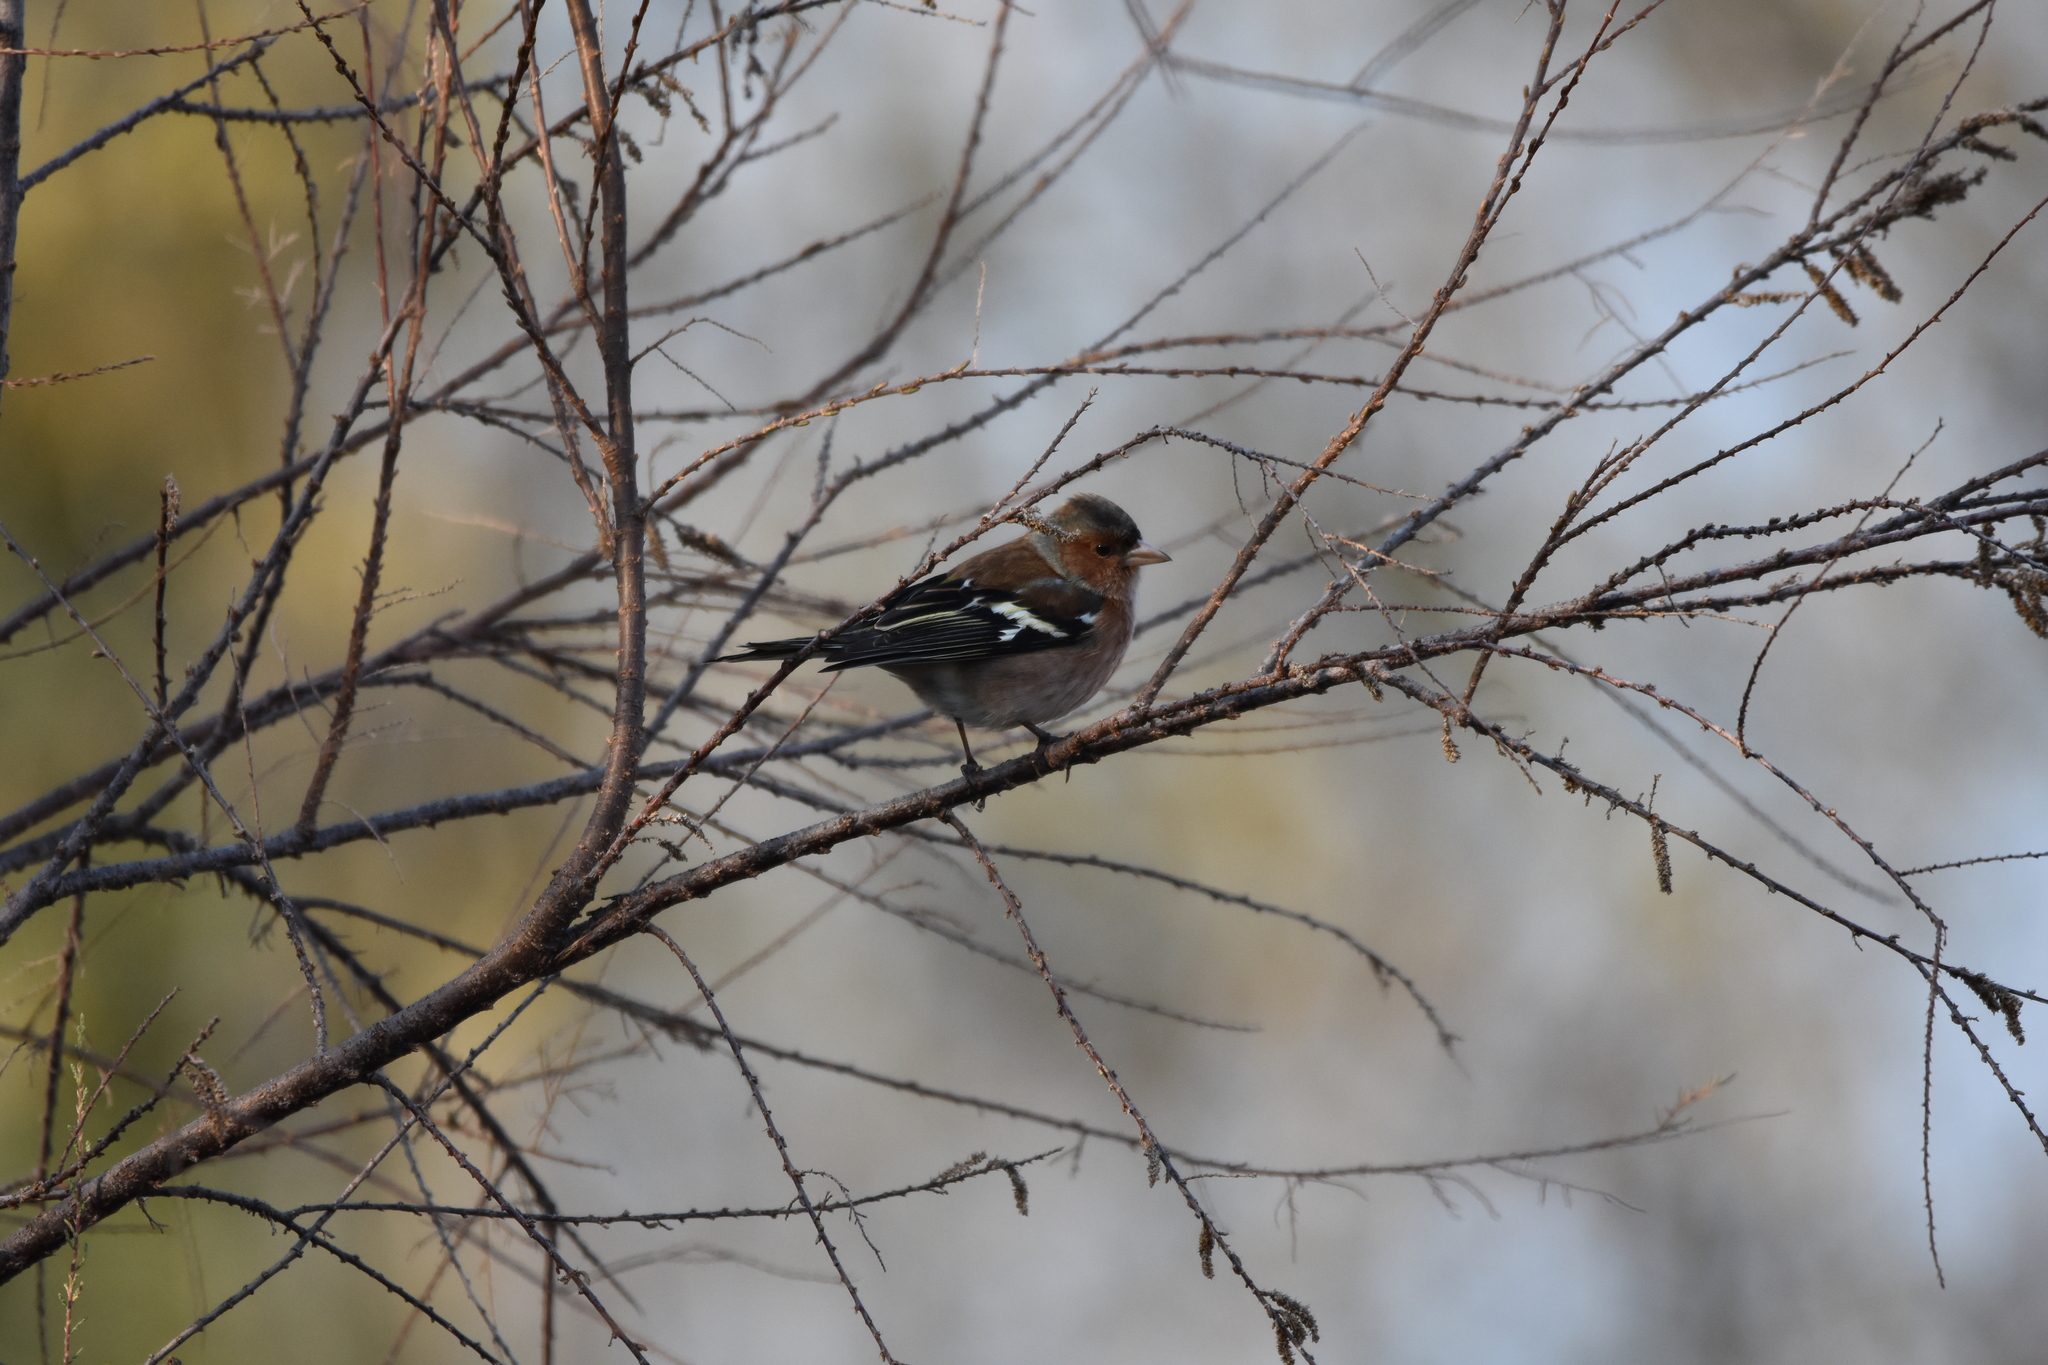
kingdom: Animalia
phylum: Chordata
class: Aves
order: Passeriformes
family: Fringillidae
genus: Fringilla
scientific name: Fringilla coelebs
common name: Common chaffinch
